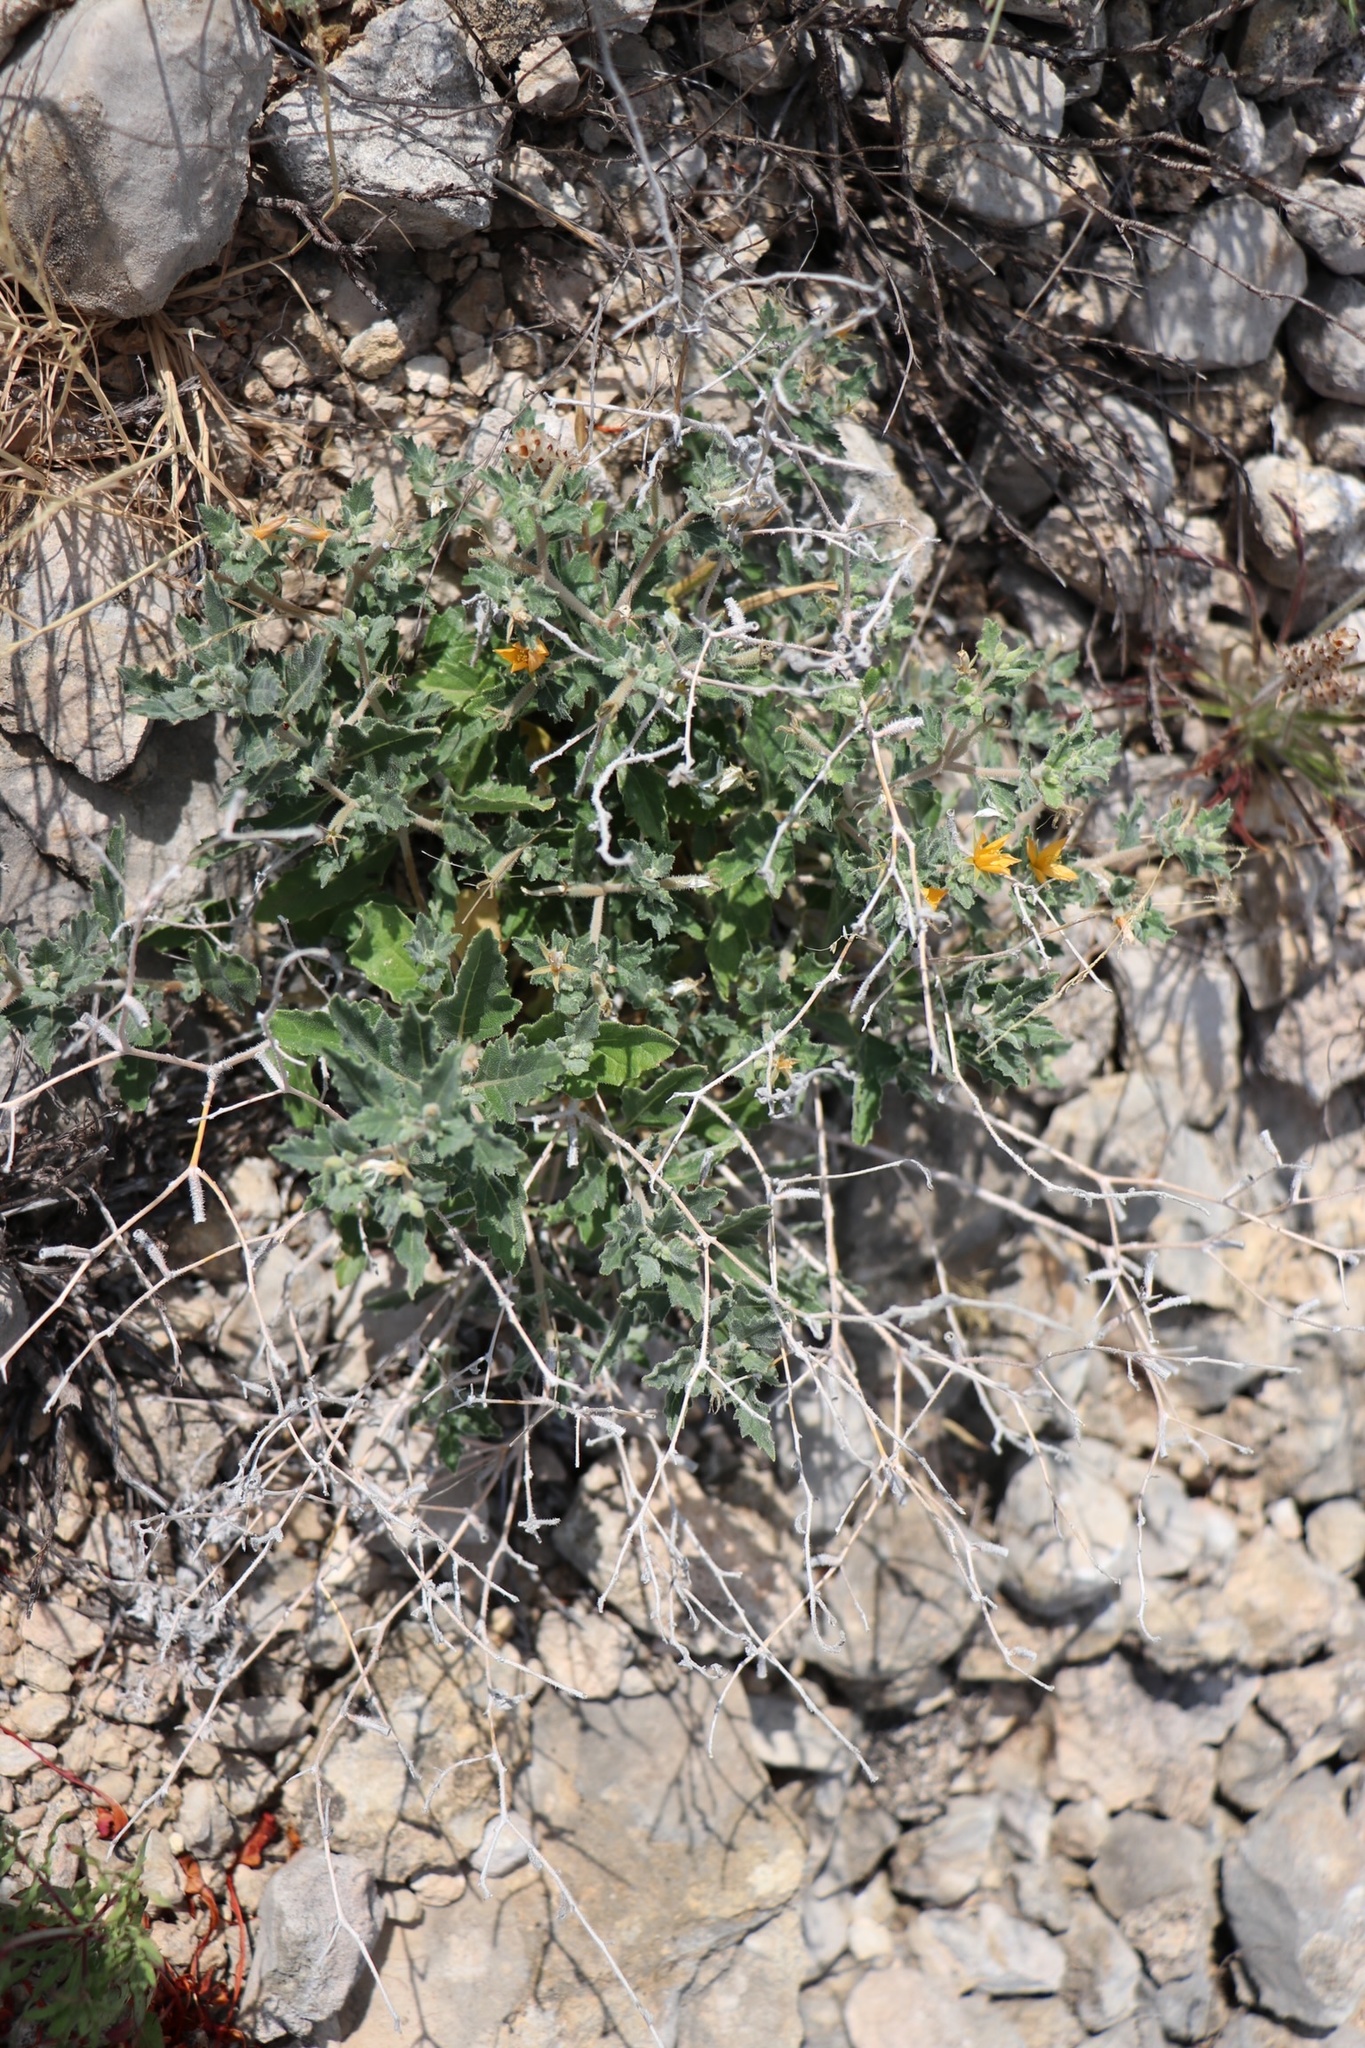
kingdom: Plantae
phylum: Tracheophyta
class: Magnoliopsida
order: Cornales
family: Loasaceae
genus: Mentzelia
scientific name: Mentzelia oligosperma
